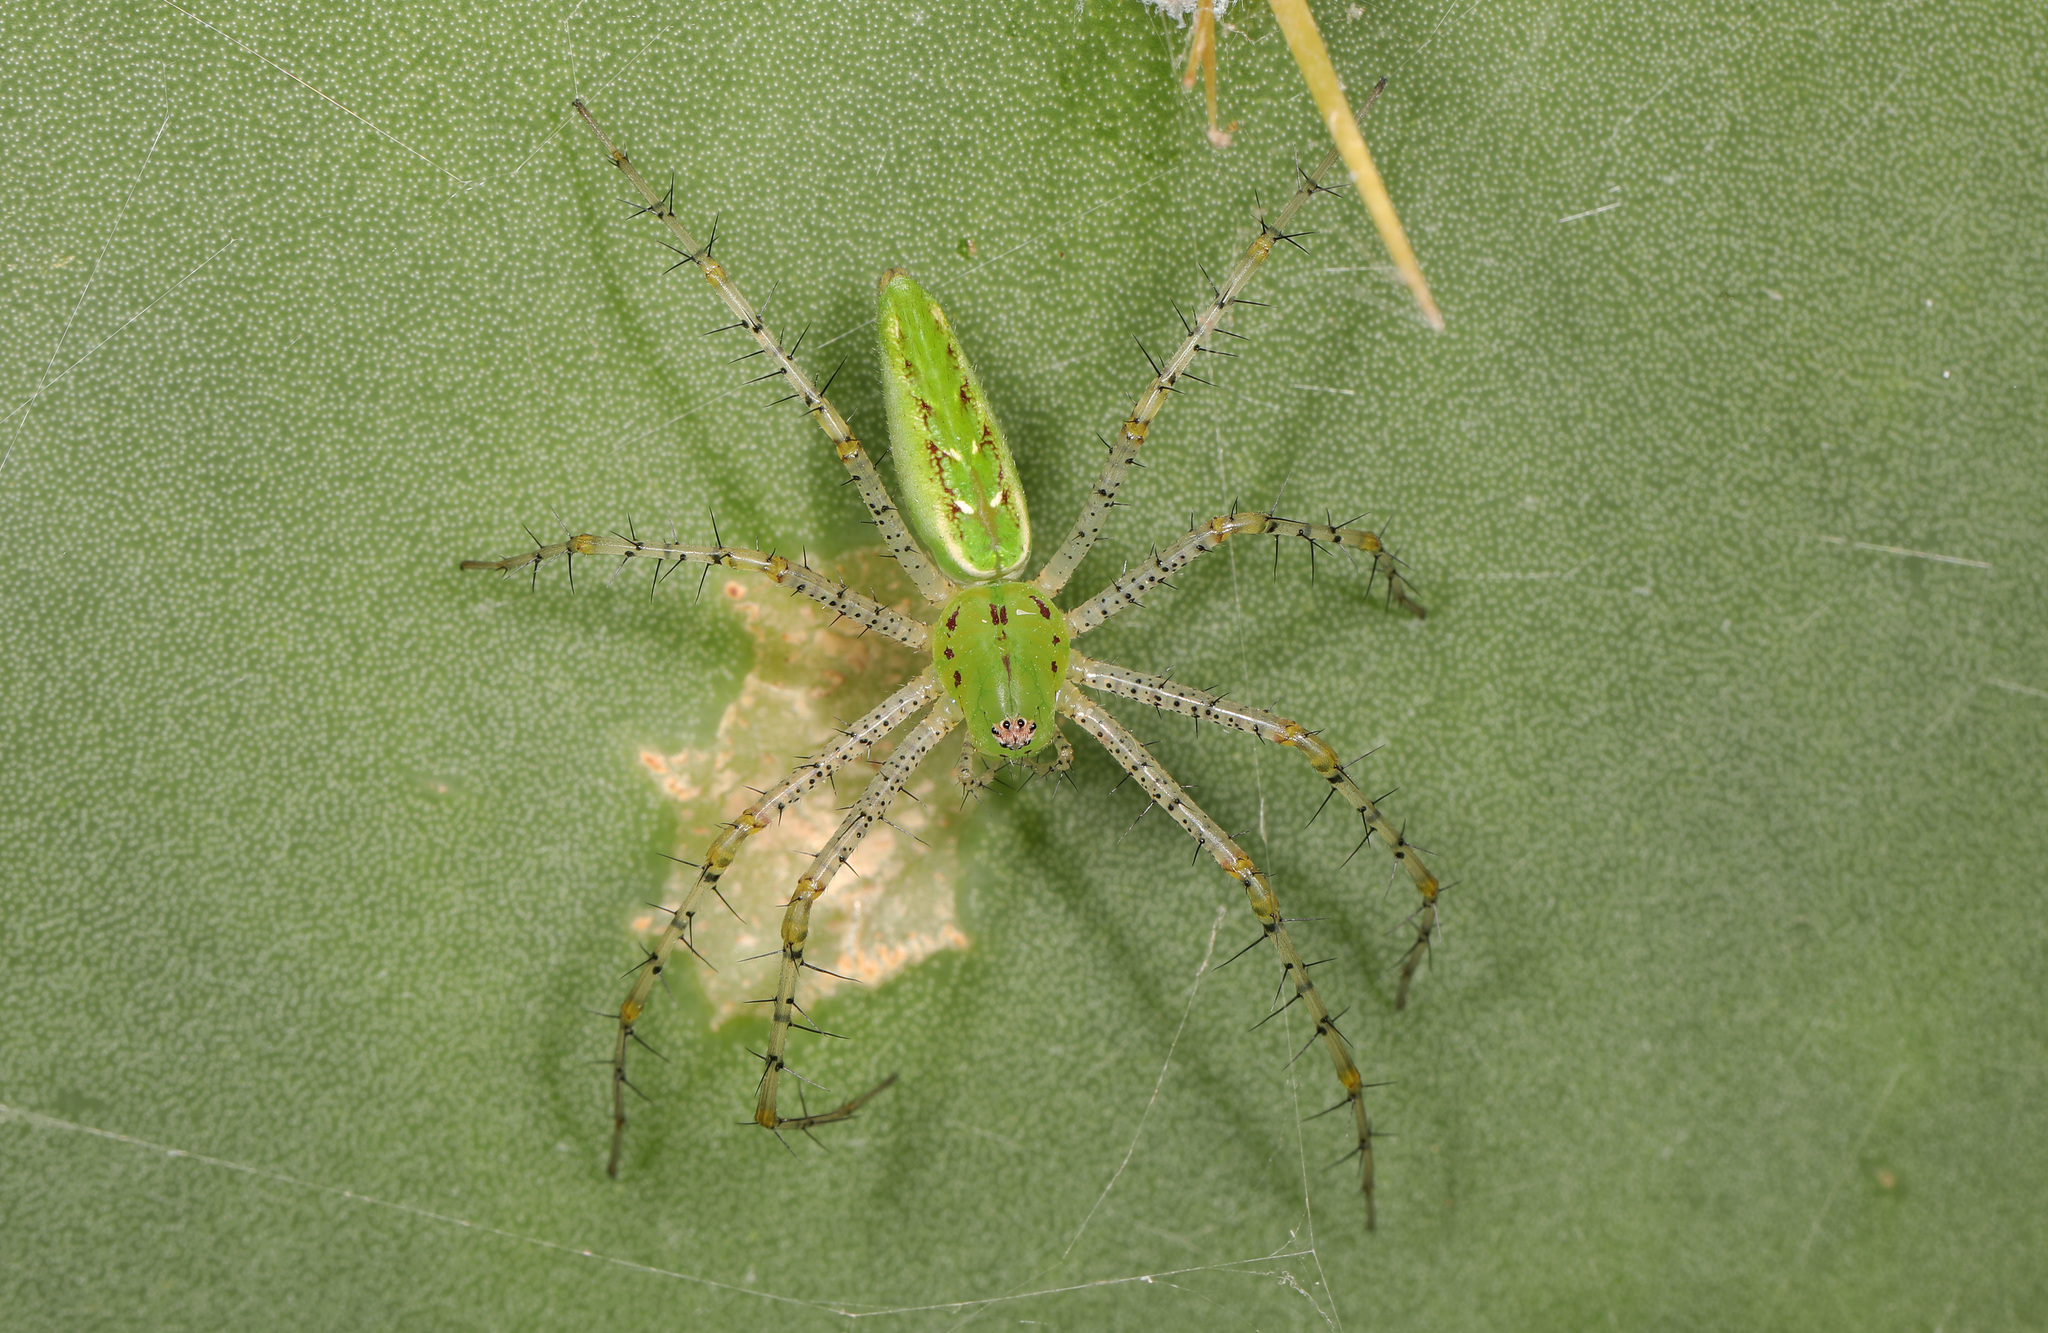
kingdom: Animalia
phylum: Arthropoda
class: Arachnida
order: Araneae
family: Oxyopidae
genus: Peucetia
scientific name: Peucetia viridans
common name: Lynx spiders
